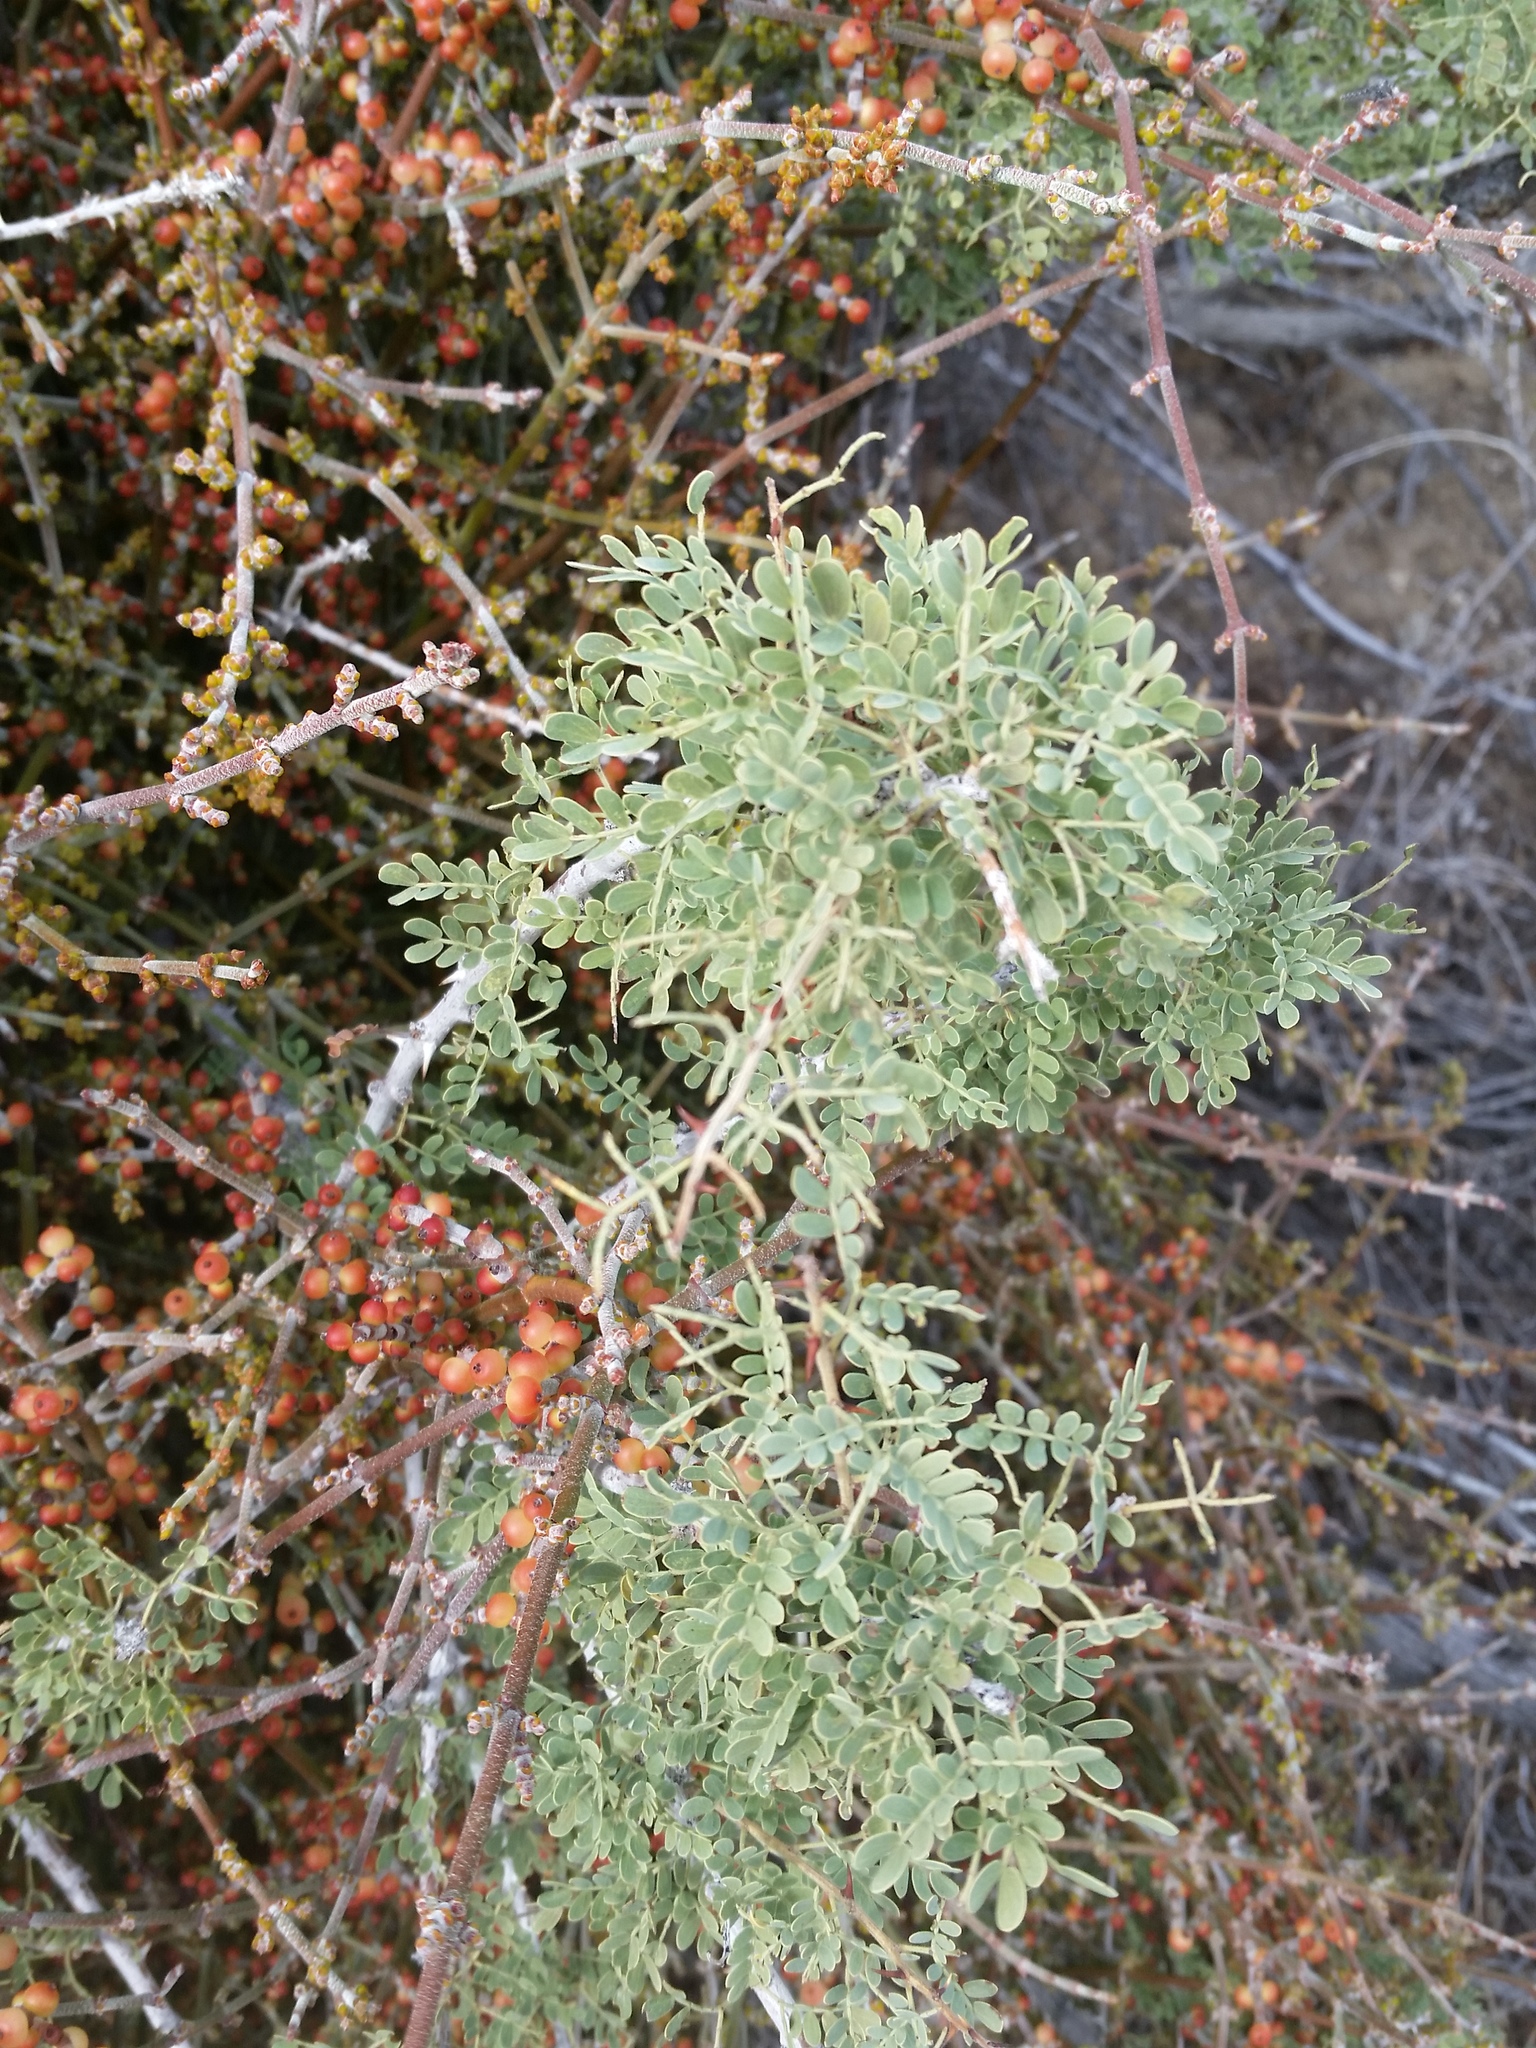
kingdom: Plantae
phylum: Tracheophyta
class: Magnoliopsida
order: Fabales
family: Fabaceae
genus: Senegalia
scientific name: Senegalia greggii
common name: Texas-mimosa
